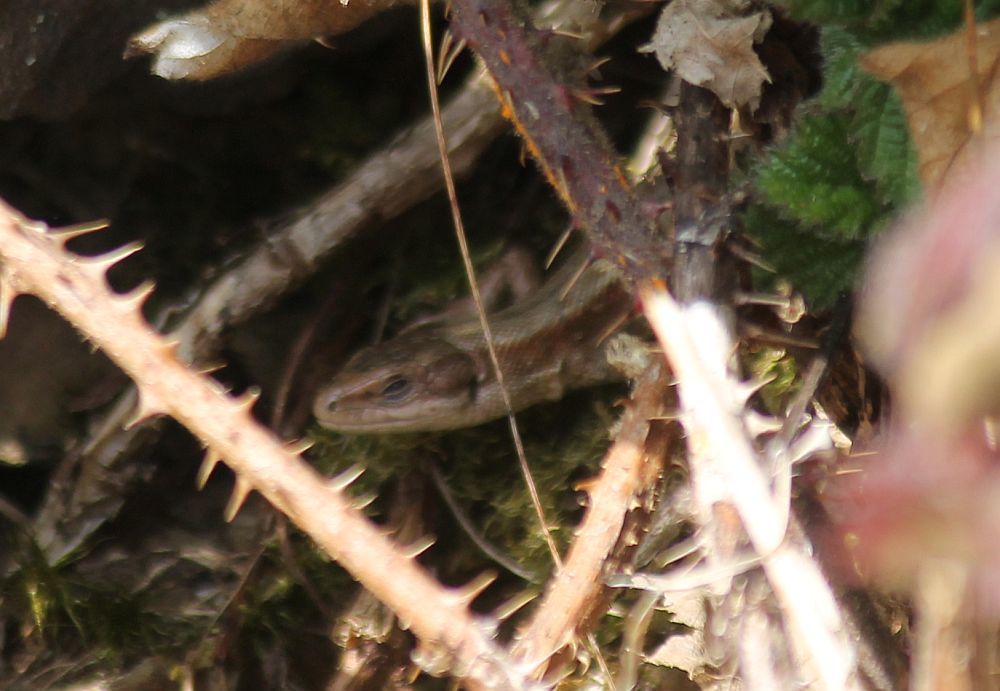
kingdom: Animalia
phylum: Chordata
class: Squamata
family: Lacertidae
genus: Zootoca
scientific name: Zootoca vivipara
